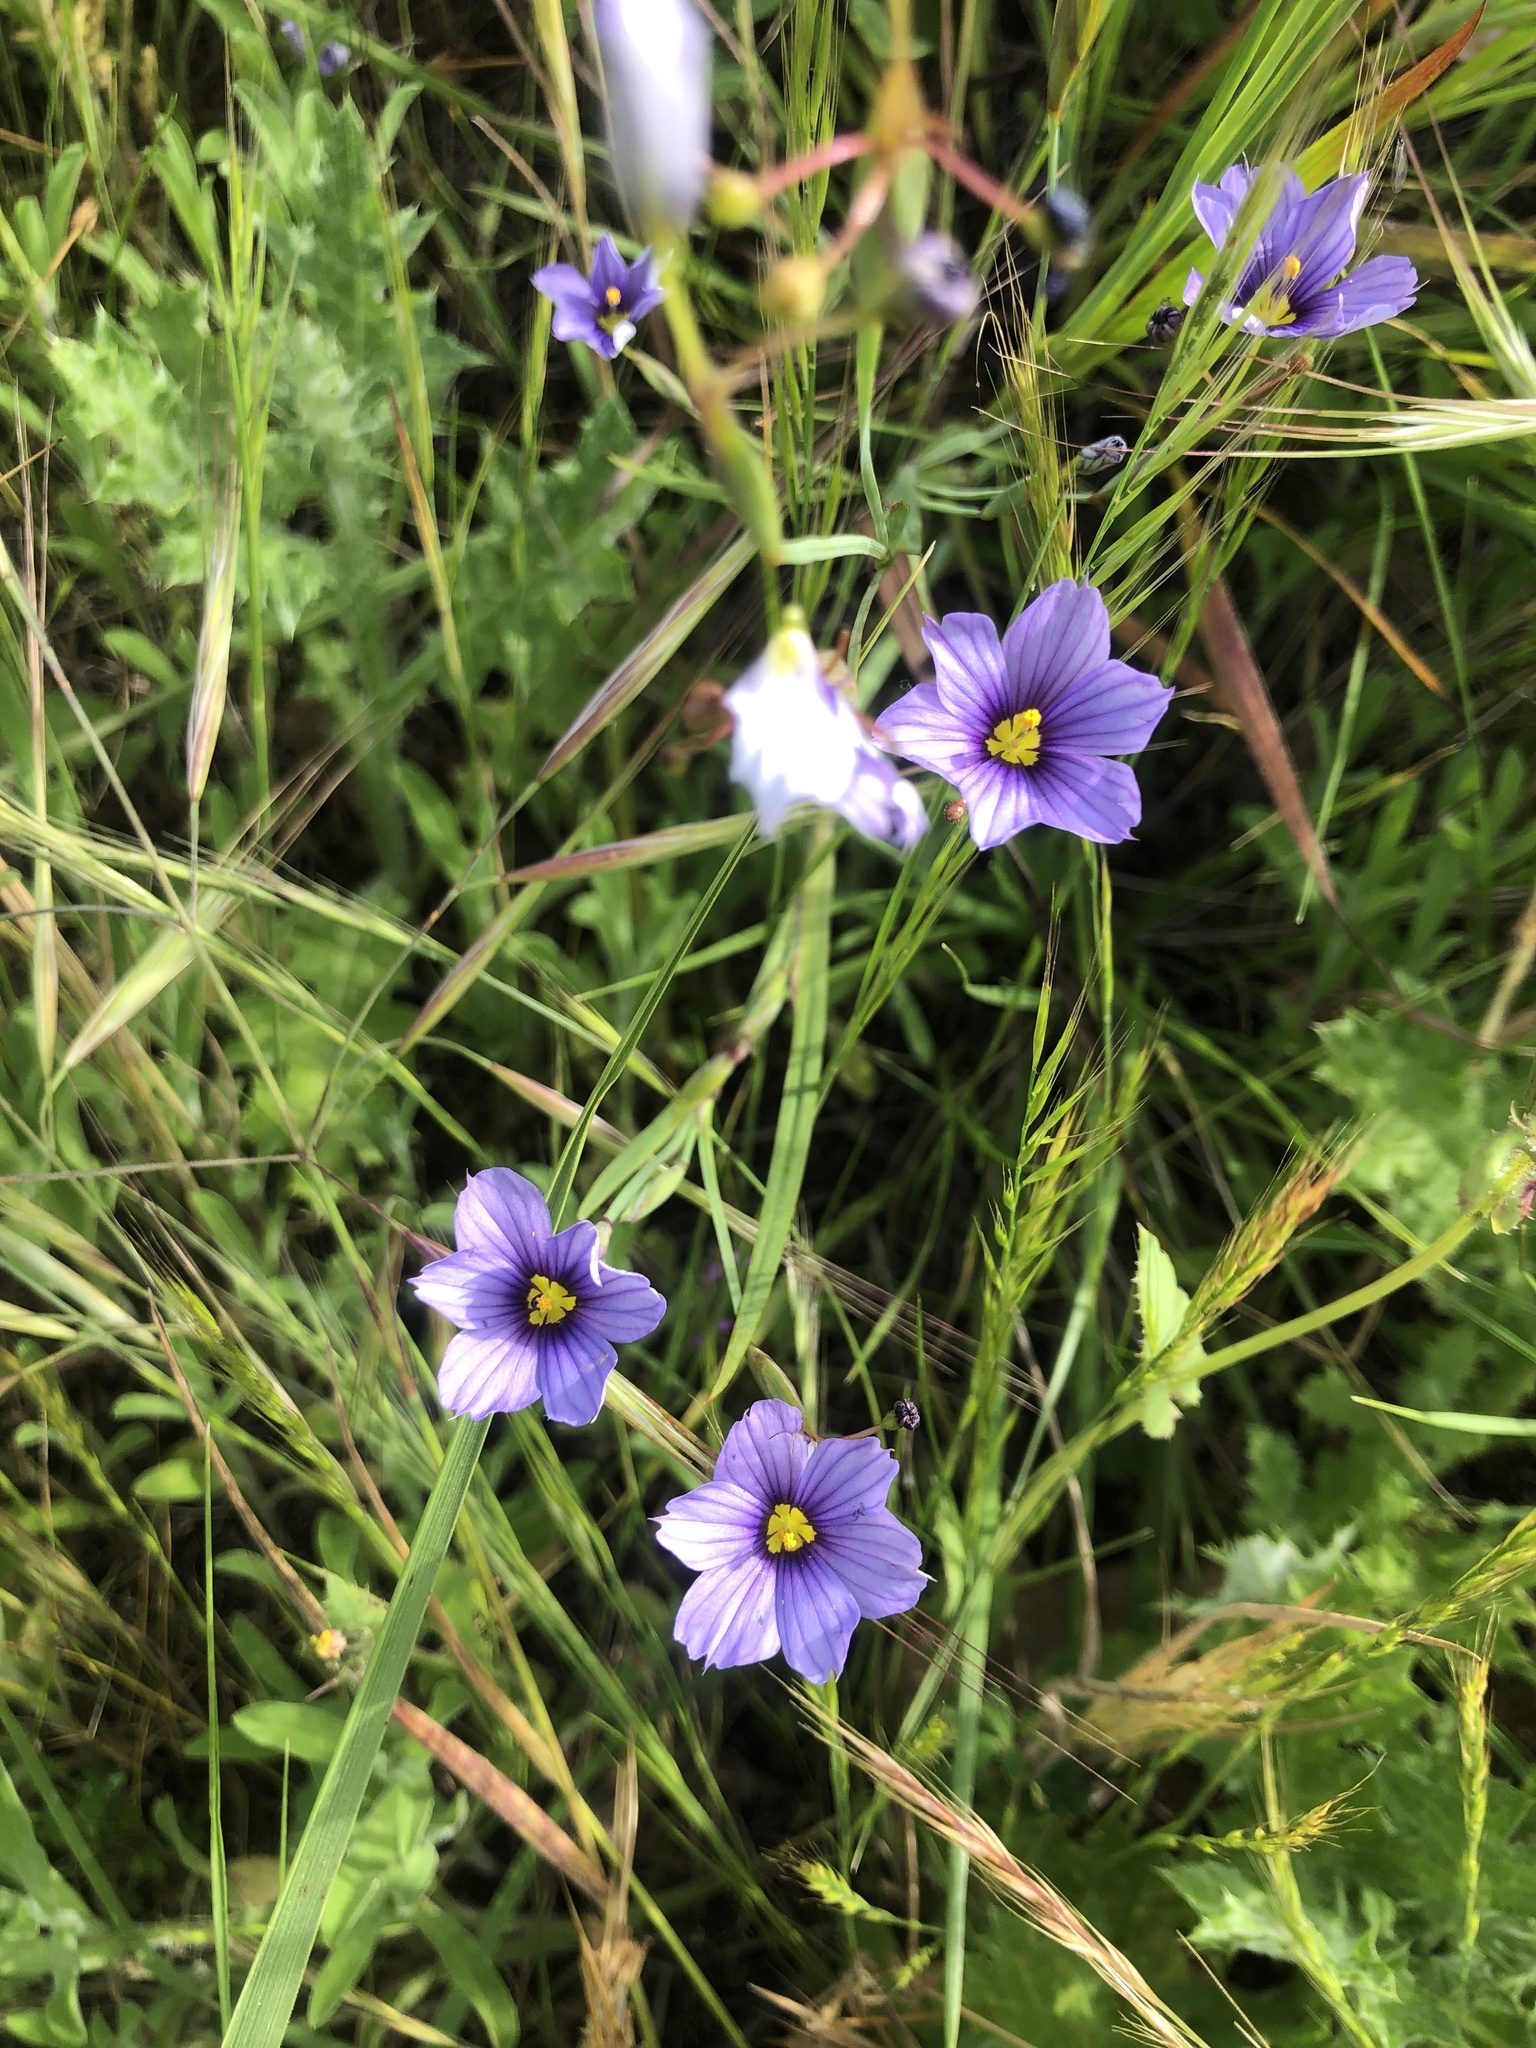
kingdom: Plantae
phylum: Tracheophyta
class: Liliopsida
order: Asparagales
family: Iridaceae
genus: Sisyrinchium
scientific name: Sisyrinchium bellum
